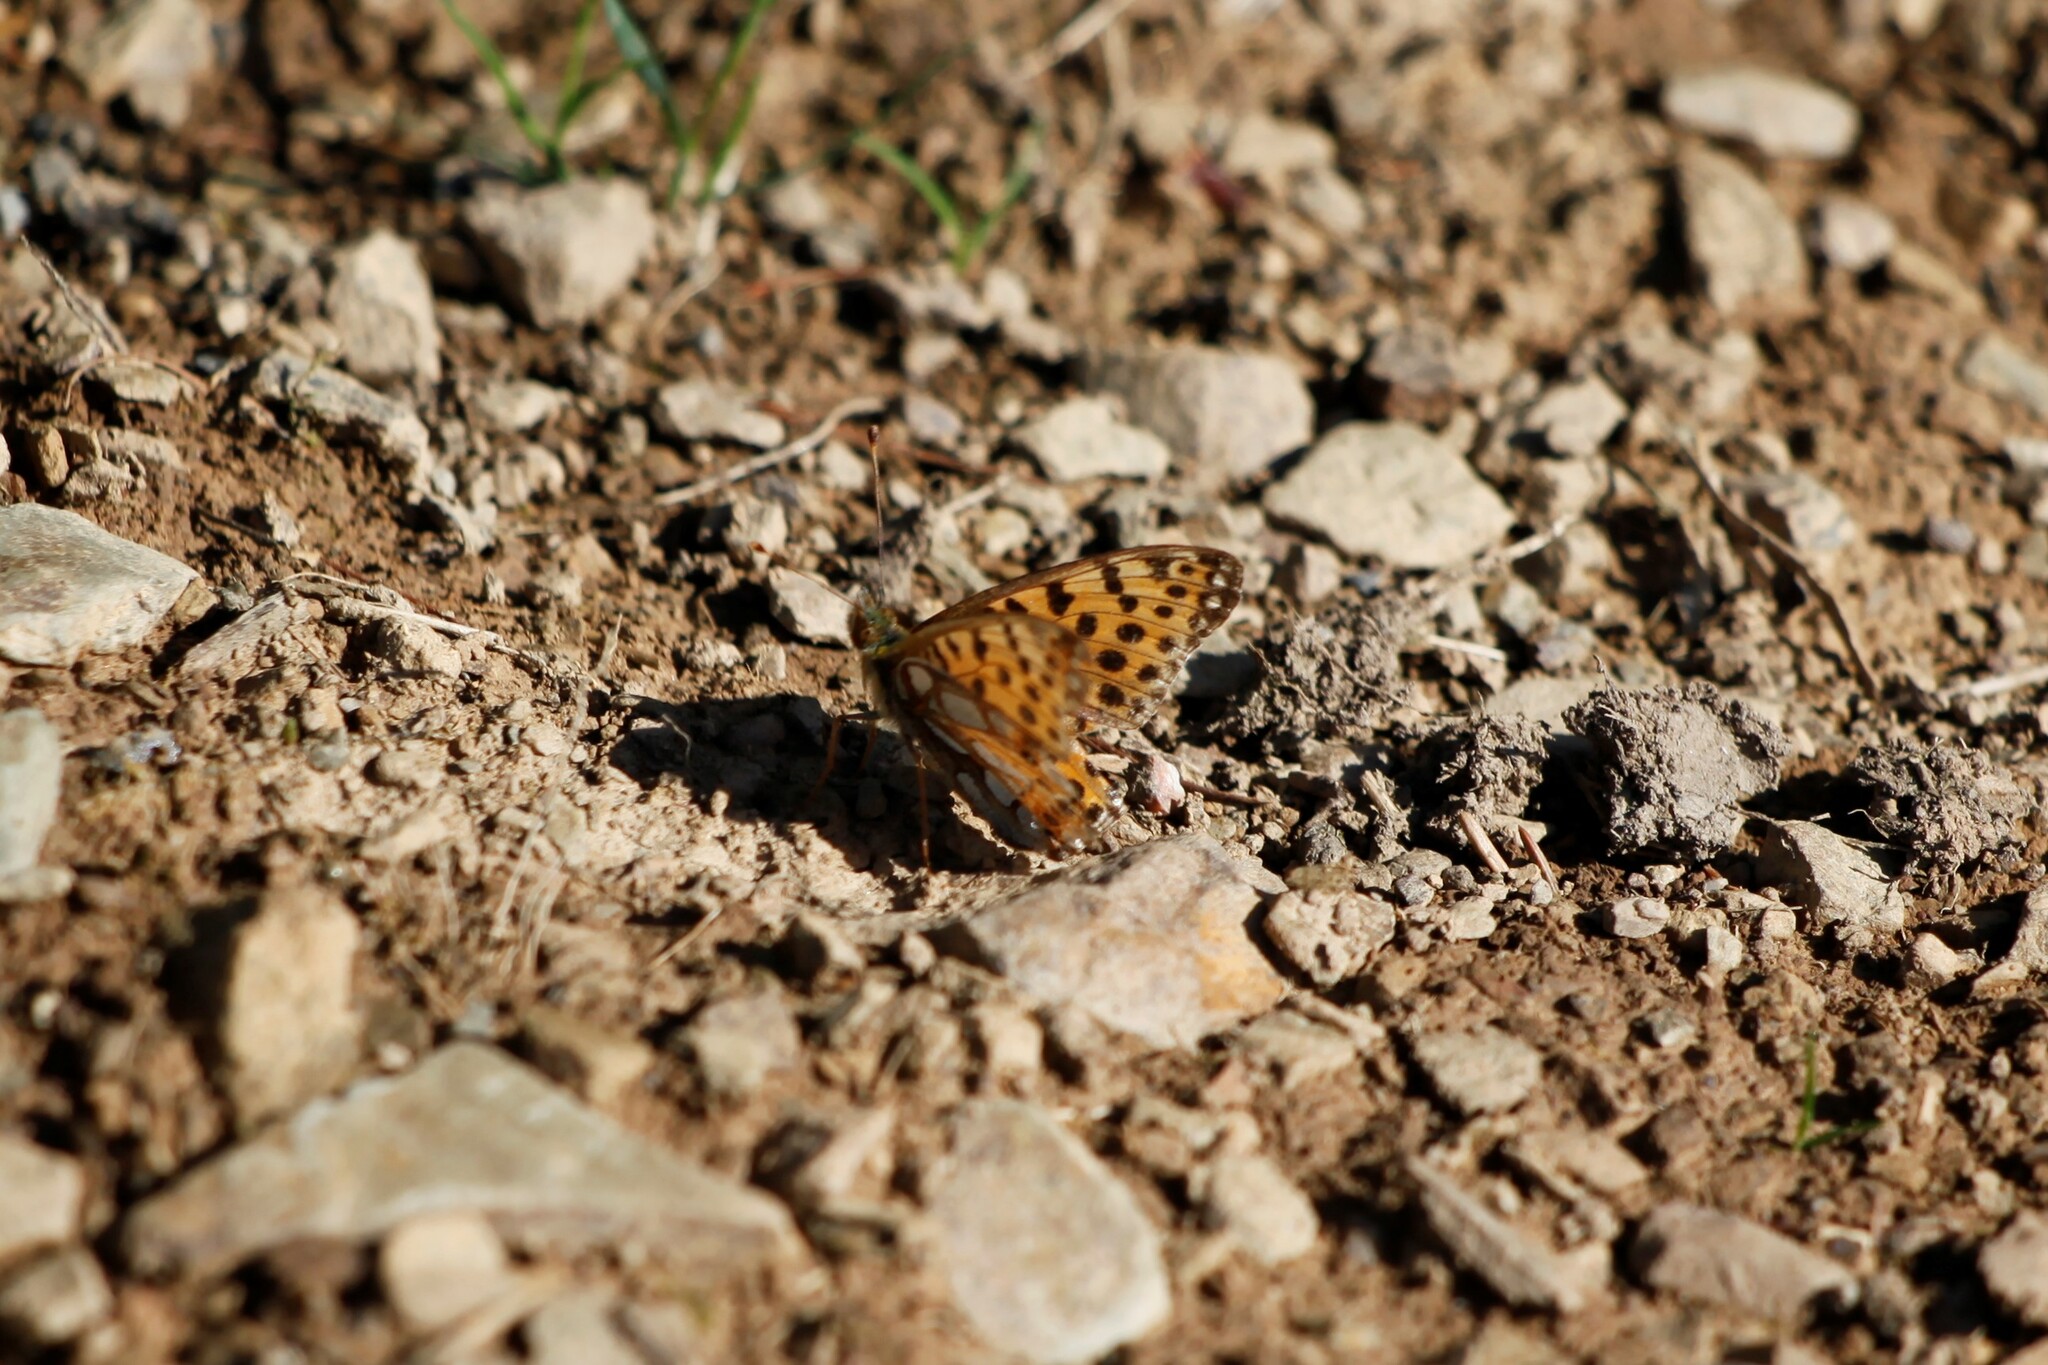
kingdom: Animalia
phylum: Arthropoda
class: Insecta
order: Lepidoptera
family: Nymphalidae
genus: Issoria
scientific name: Issoria lathonia
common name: Queen of spain fritillary
